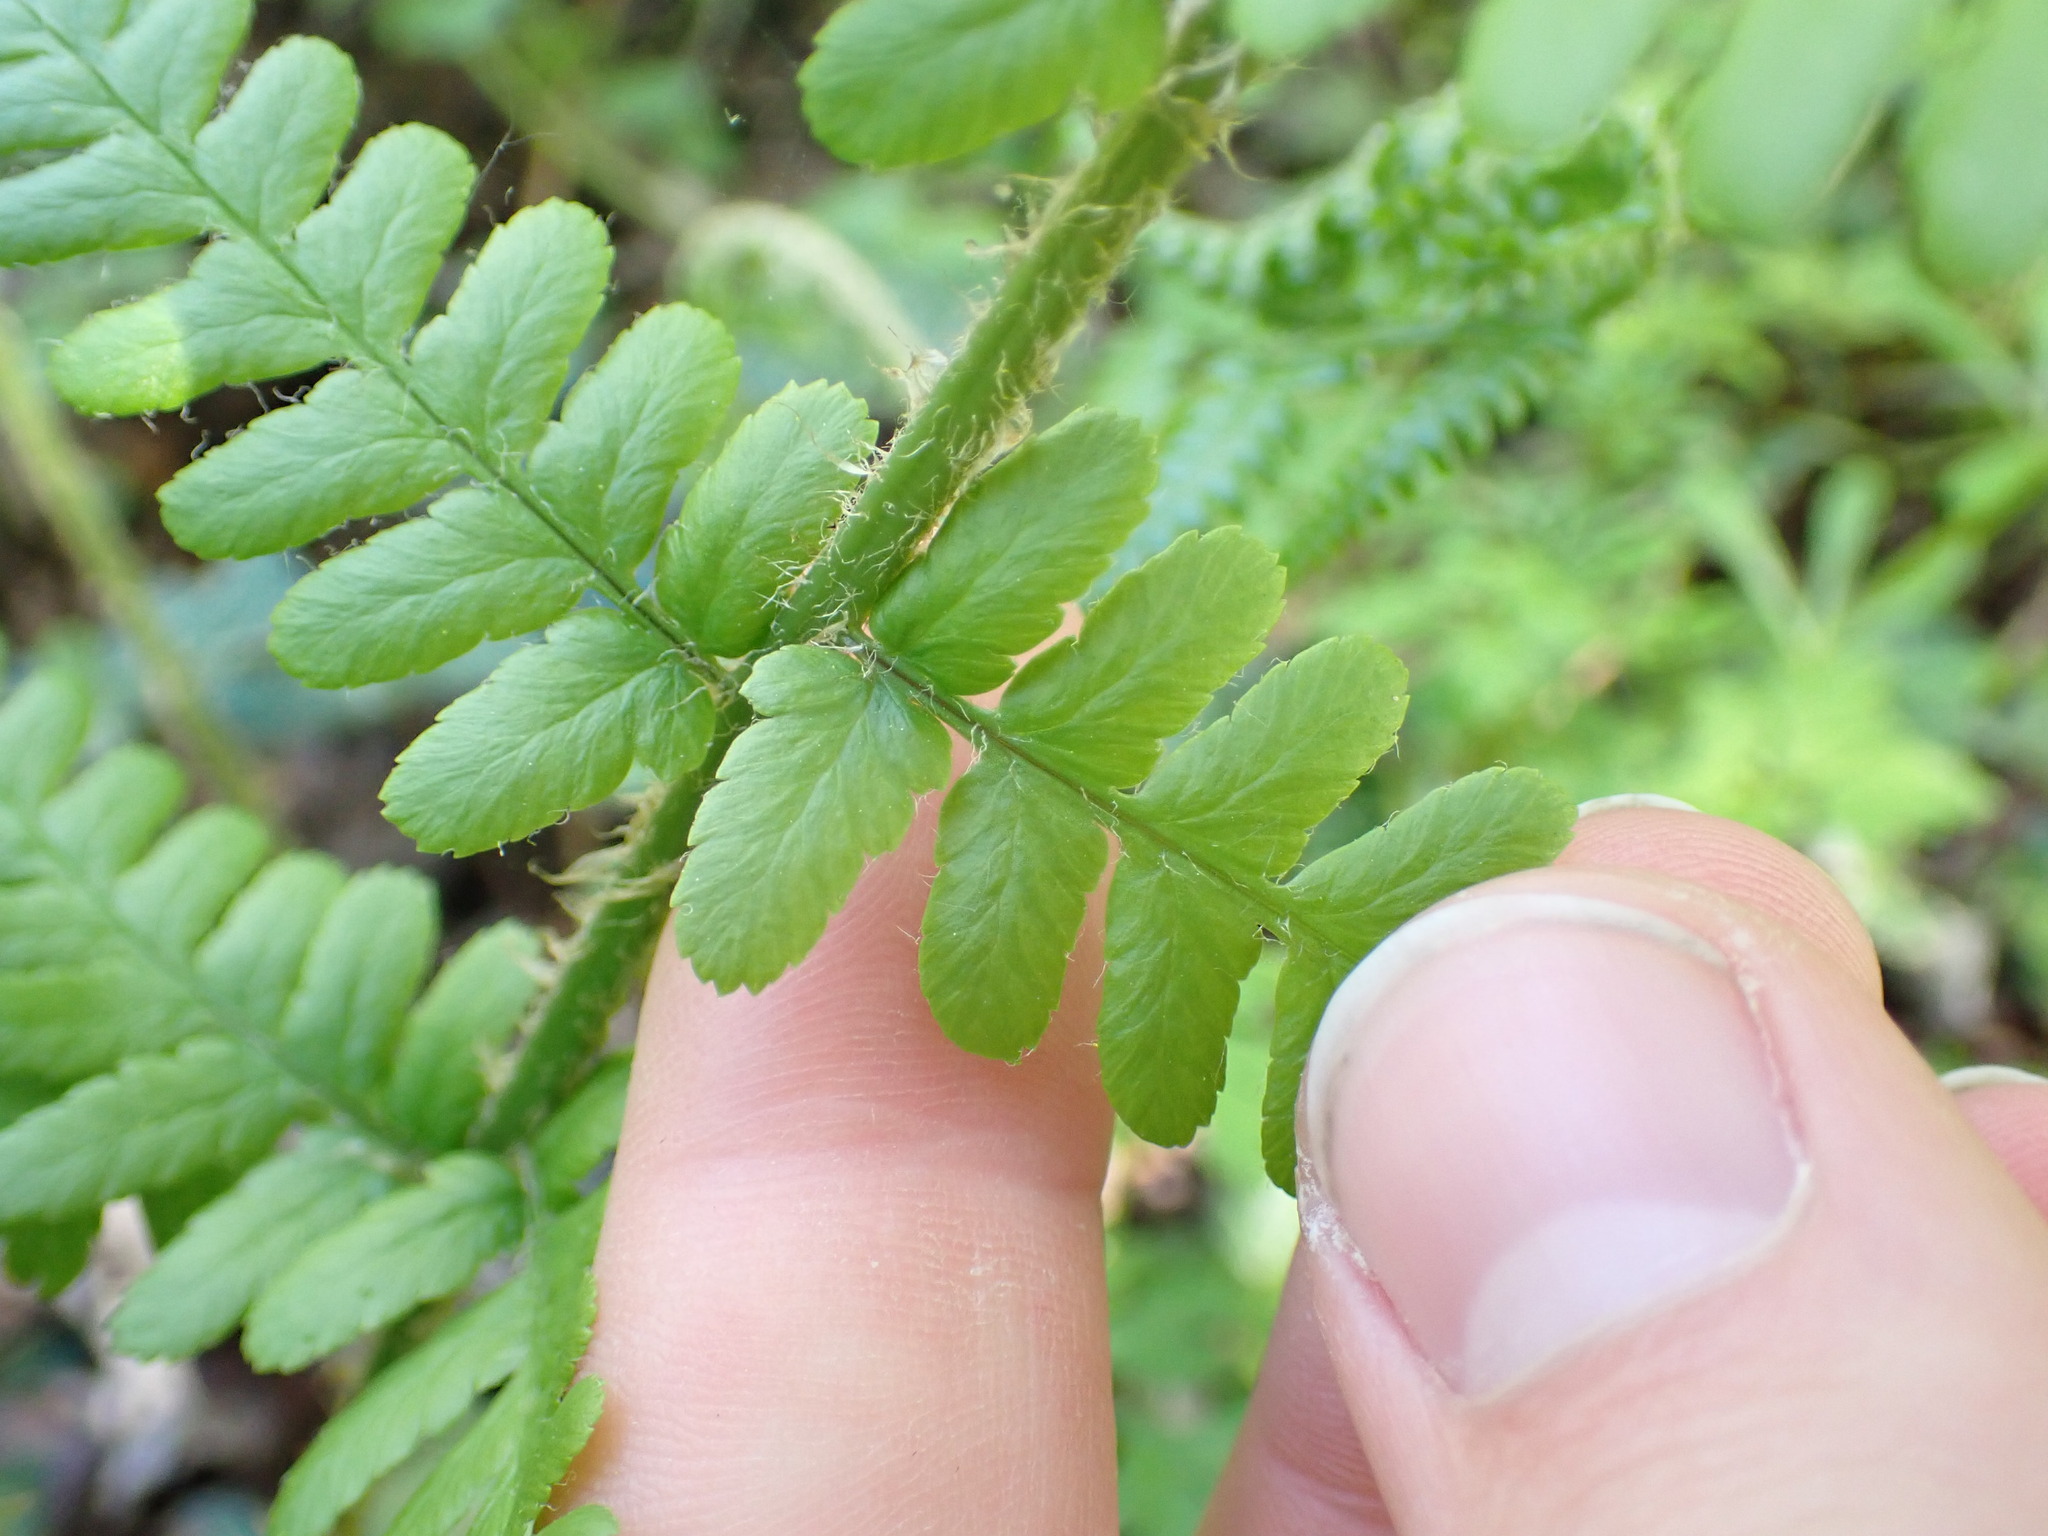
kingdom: Plantae
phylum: Tracheophyta
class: Polypodiopsida
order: Polypodiales
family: Dryopteridaceae
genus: Dryopteris
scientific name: Dryopteris filix-mas
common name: Male fern
